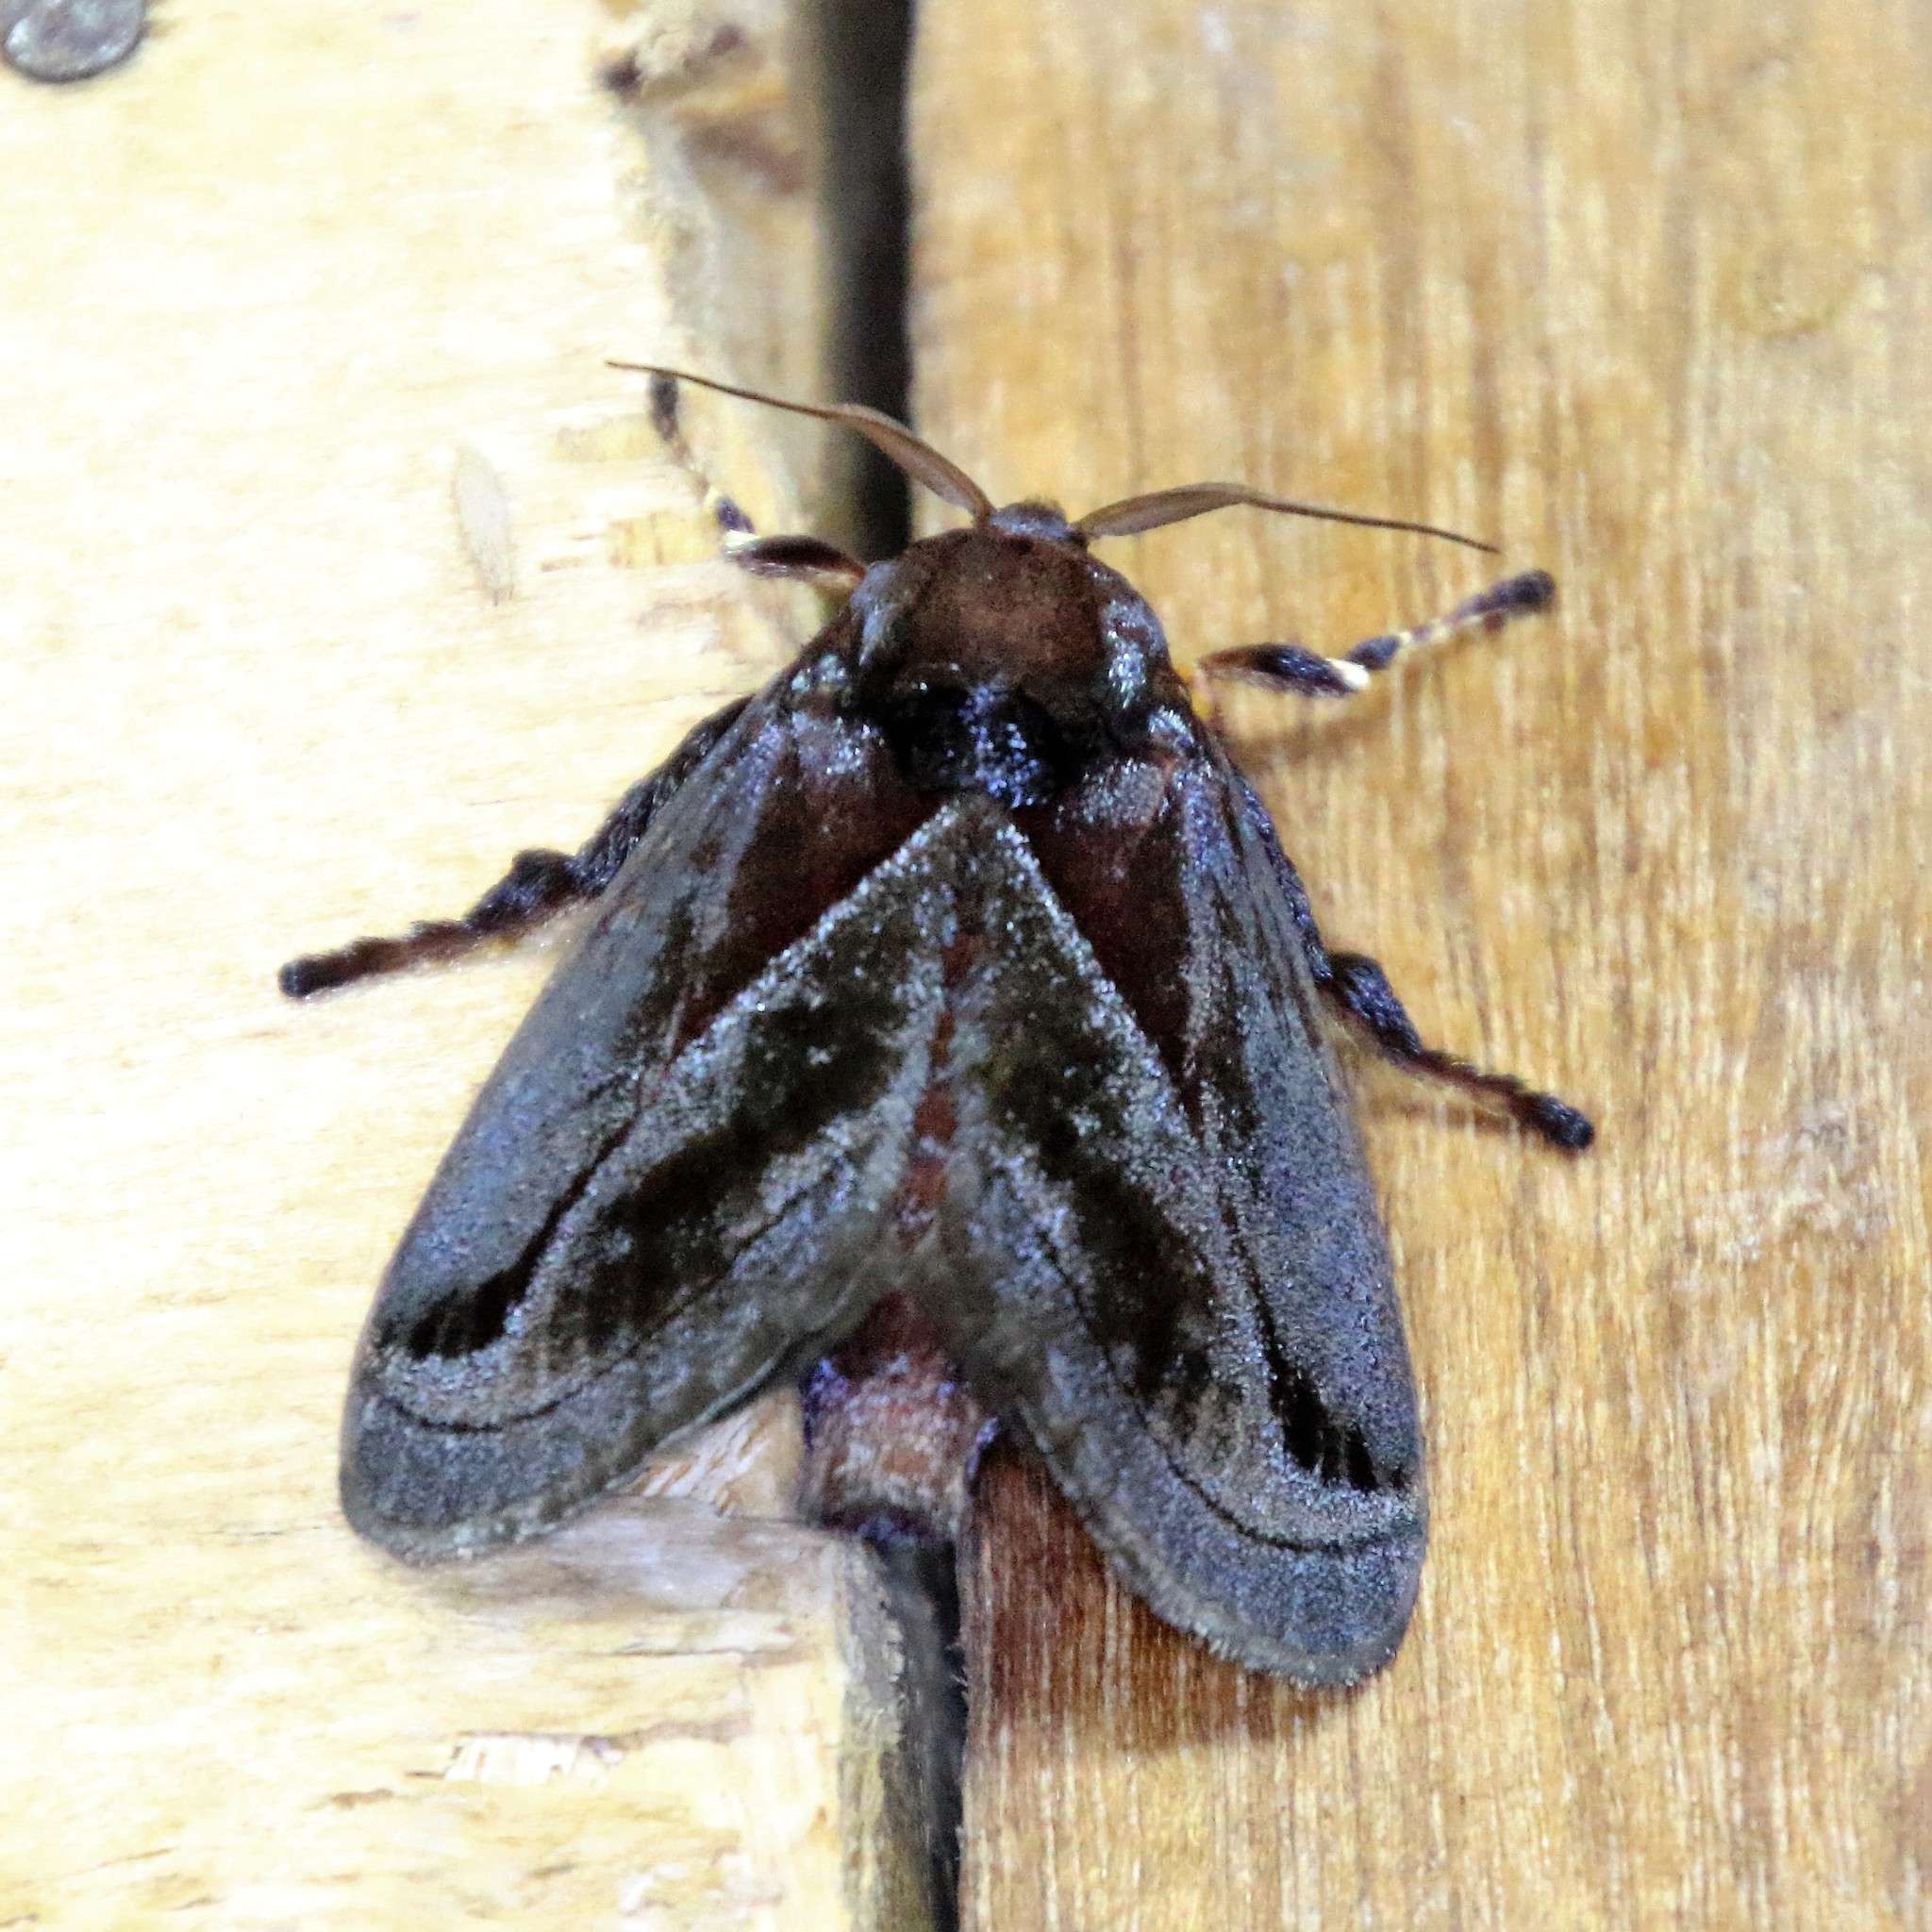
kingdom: Animalia
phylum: Arthropoda
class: Insecta
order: Lepidoptera
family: Limacodidae
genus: Phocoderma
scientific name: Phocoderma velutina
